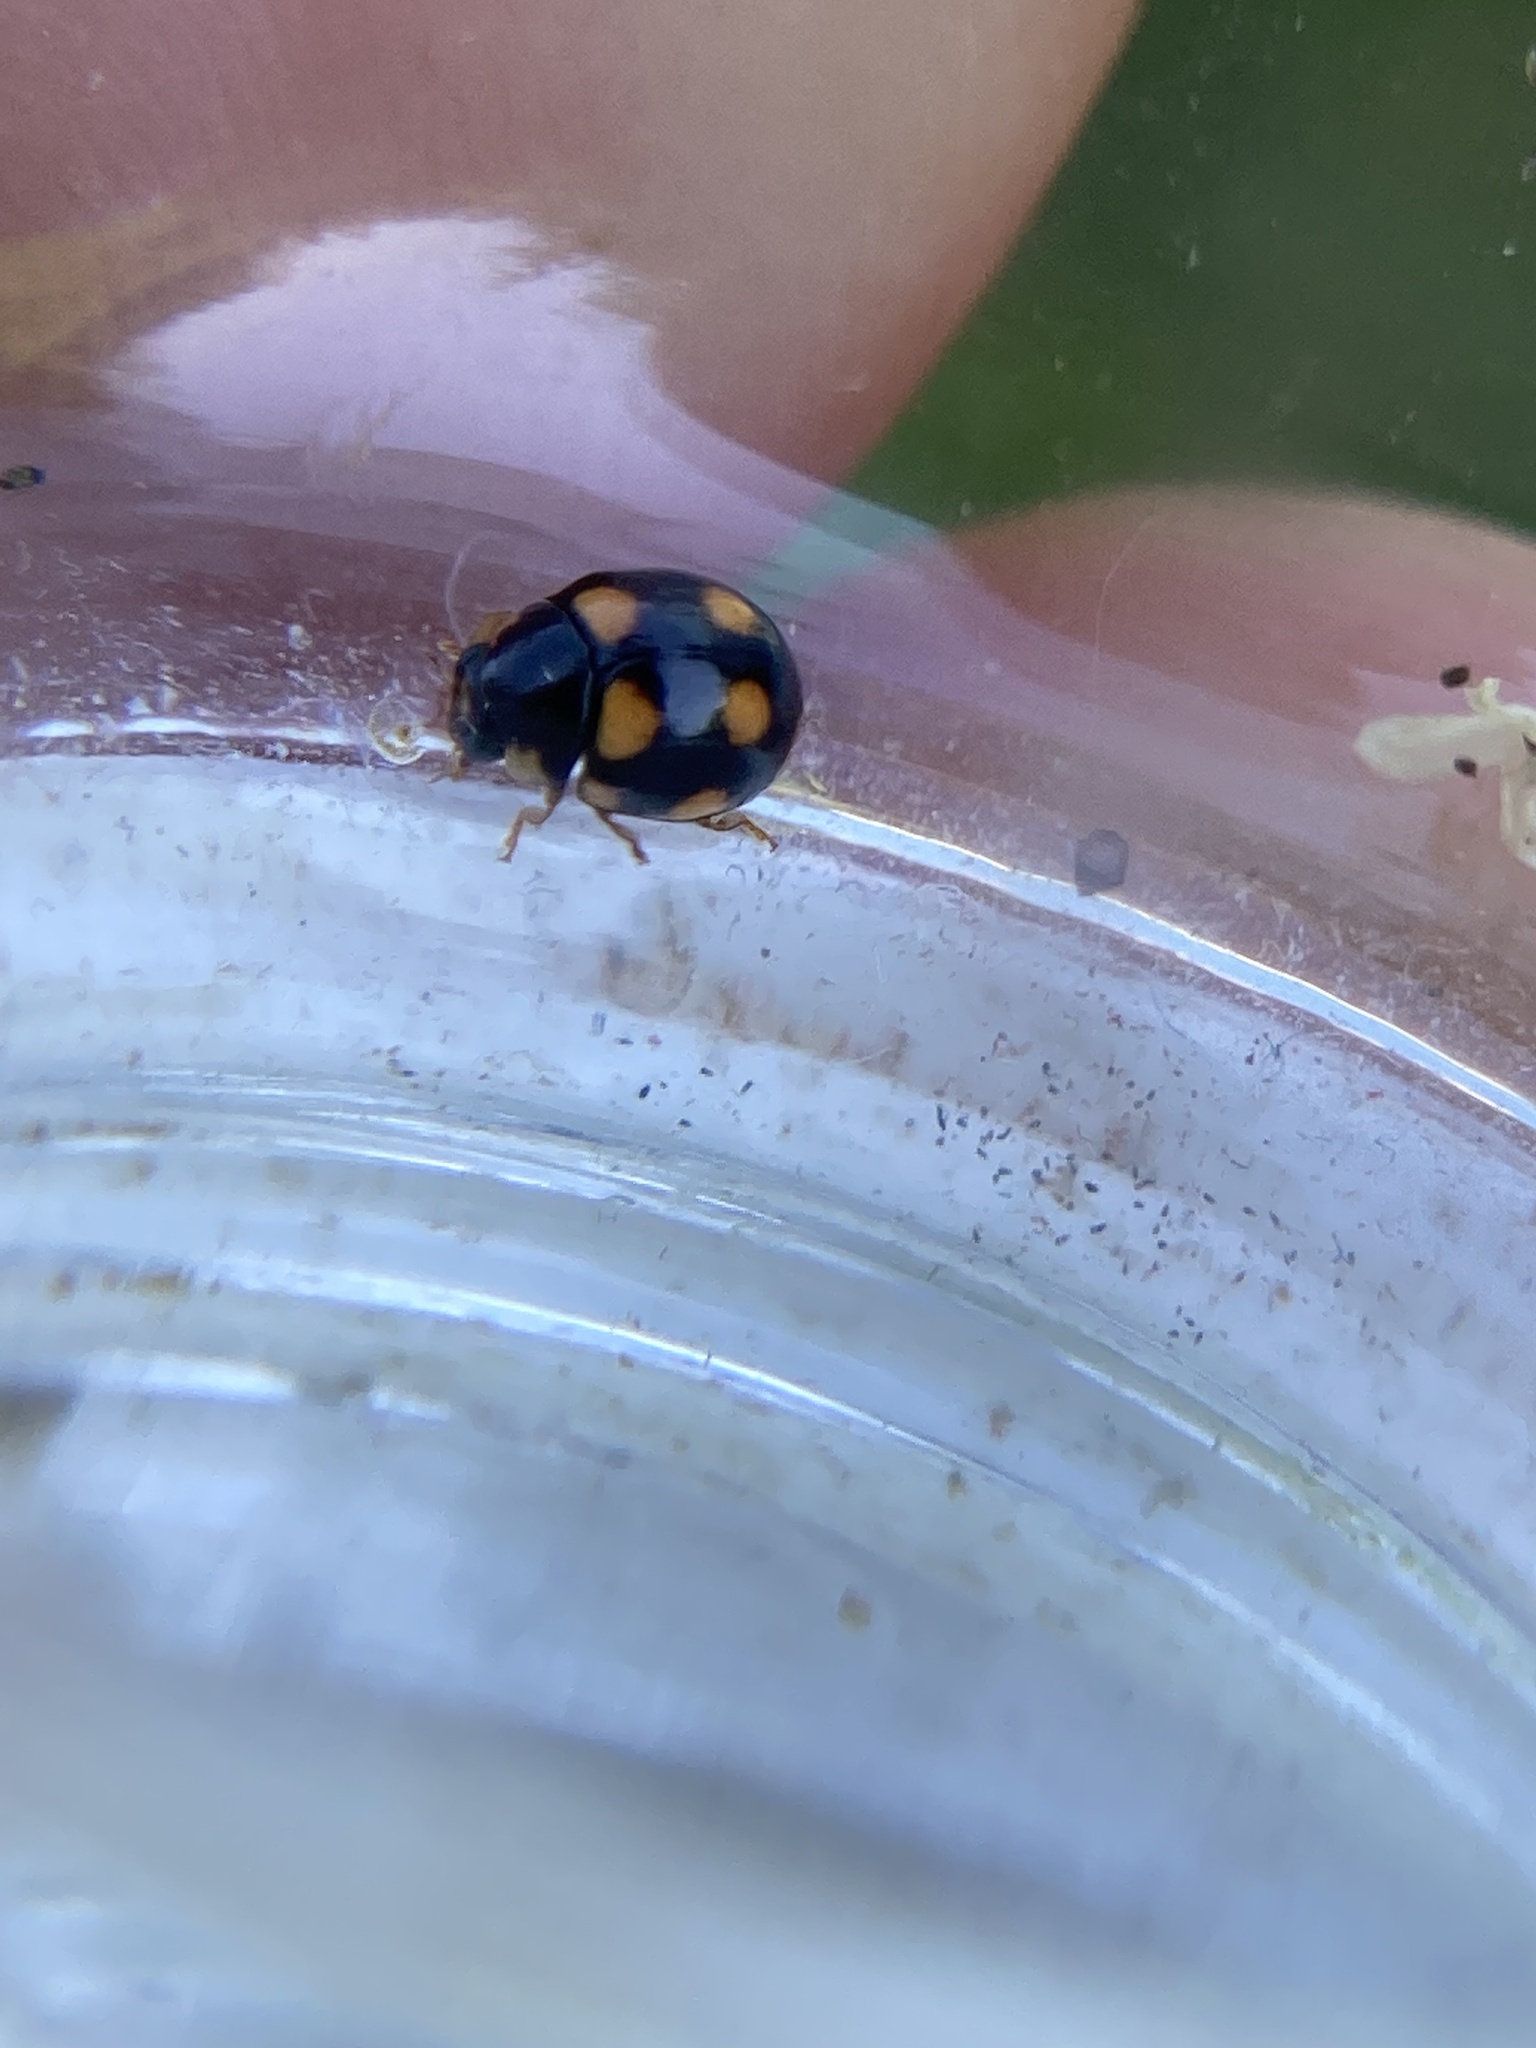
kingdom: Animalia
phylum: Arthropoda
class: Insecta
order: Coleoptera
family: Coccinellidae
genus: Brachiacantha
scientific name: Brachiacantha ursina
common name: Ursine spurleg lady beetle
